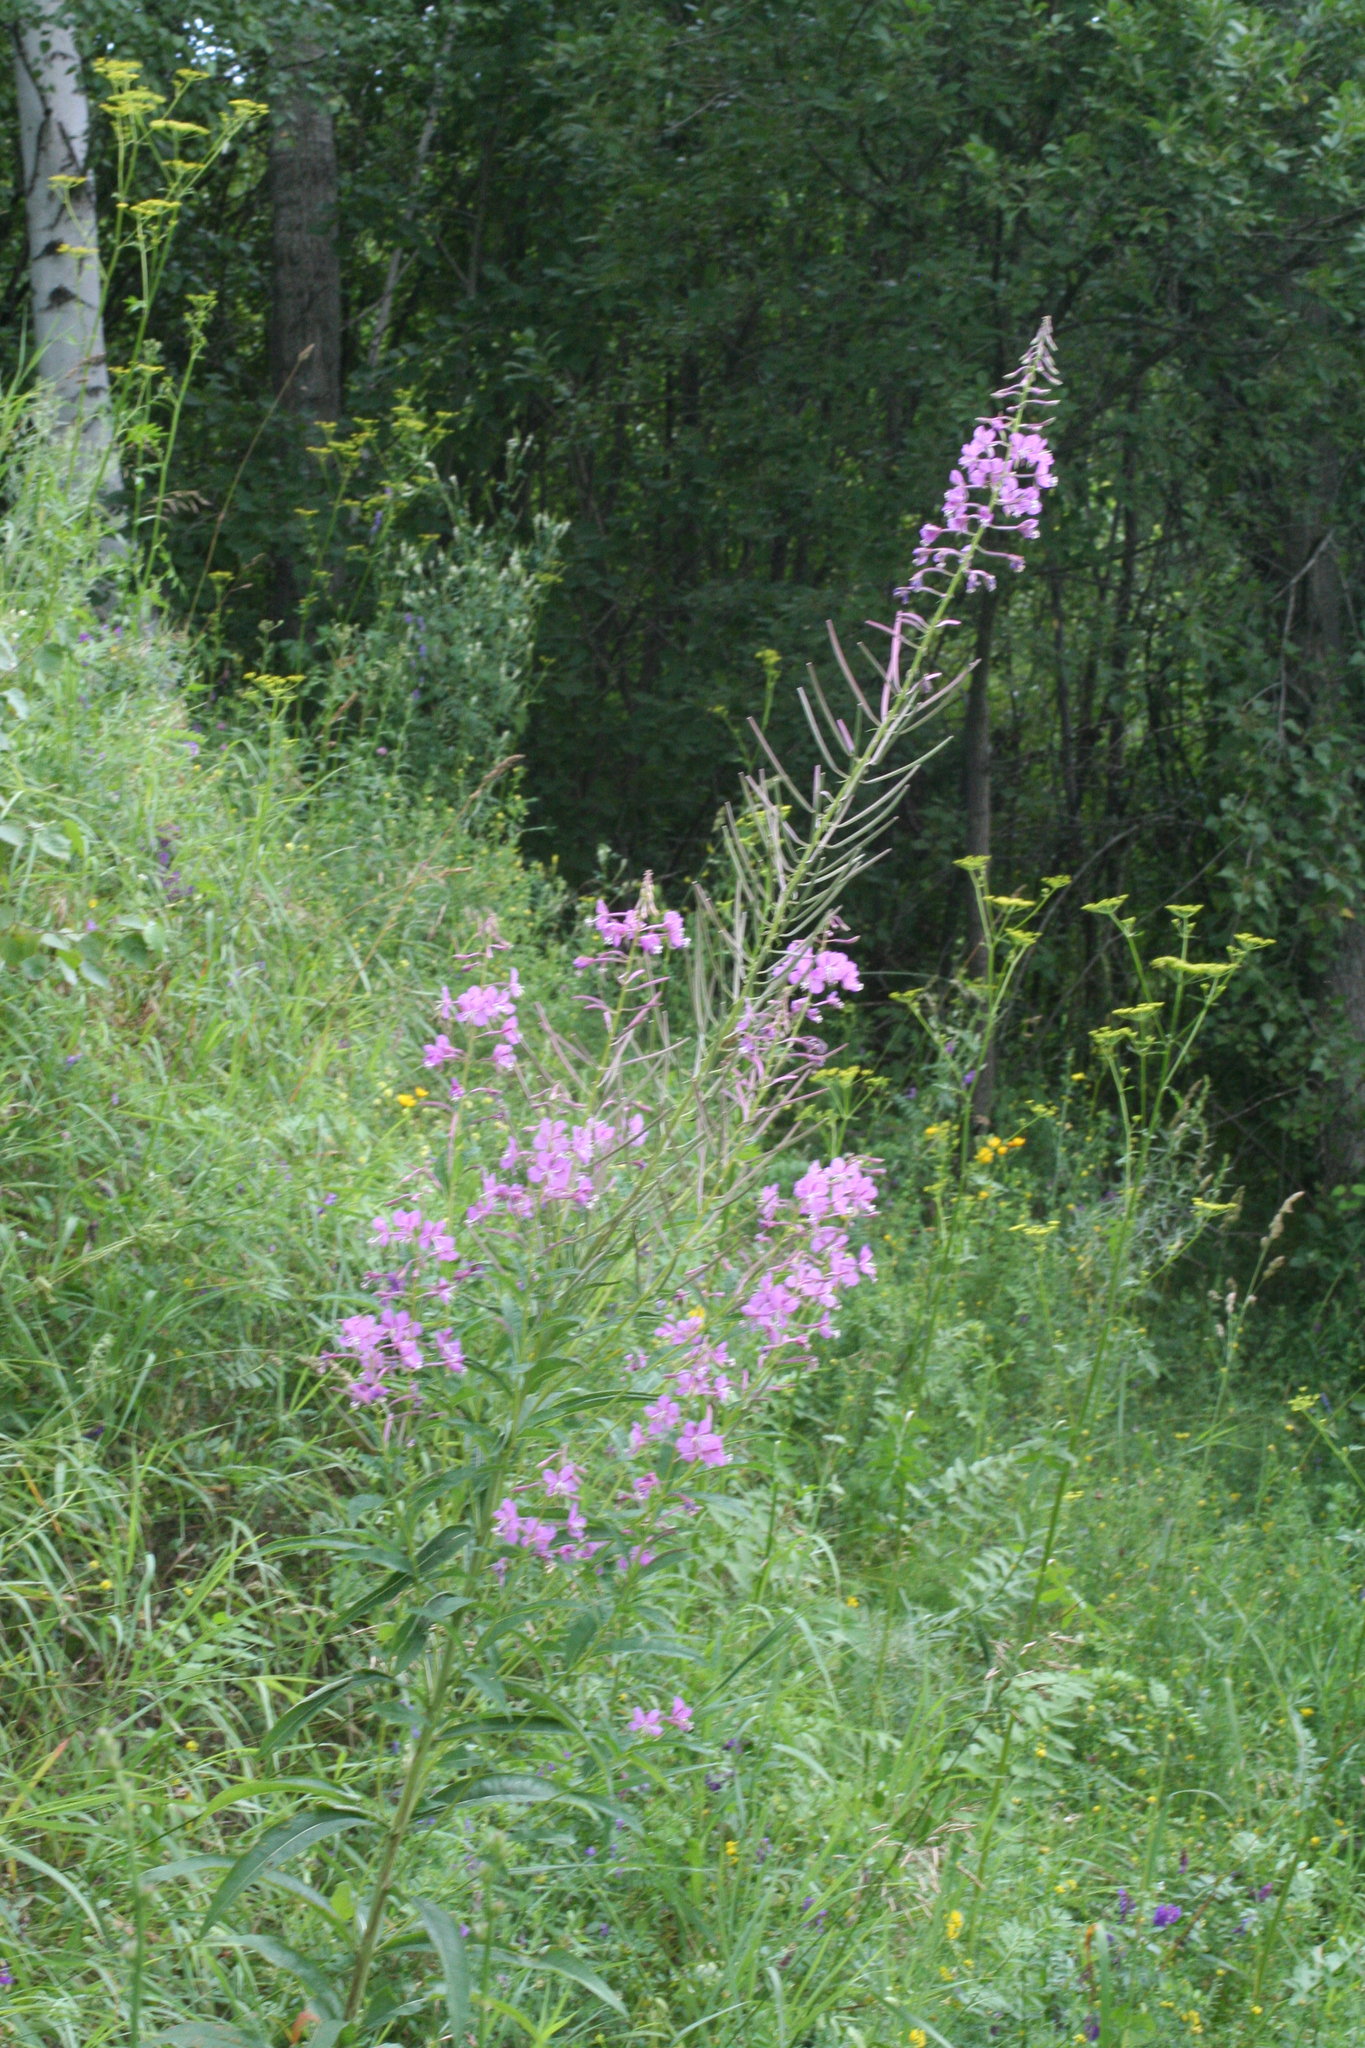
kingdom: Plantae
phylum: Tracheophyta
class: Magnoliopsida
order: Myrtales
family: Onagraceae
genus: Chamaenerion
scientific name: Chamaenerion angustifolium
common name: Fireweed
